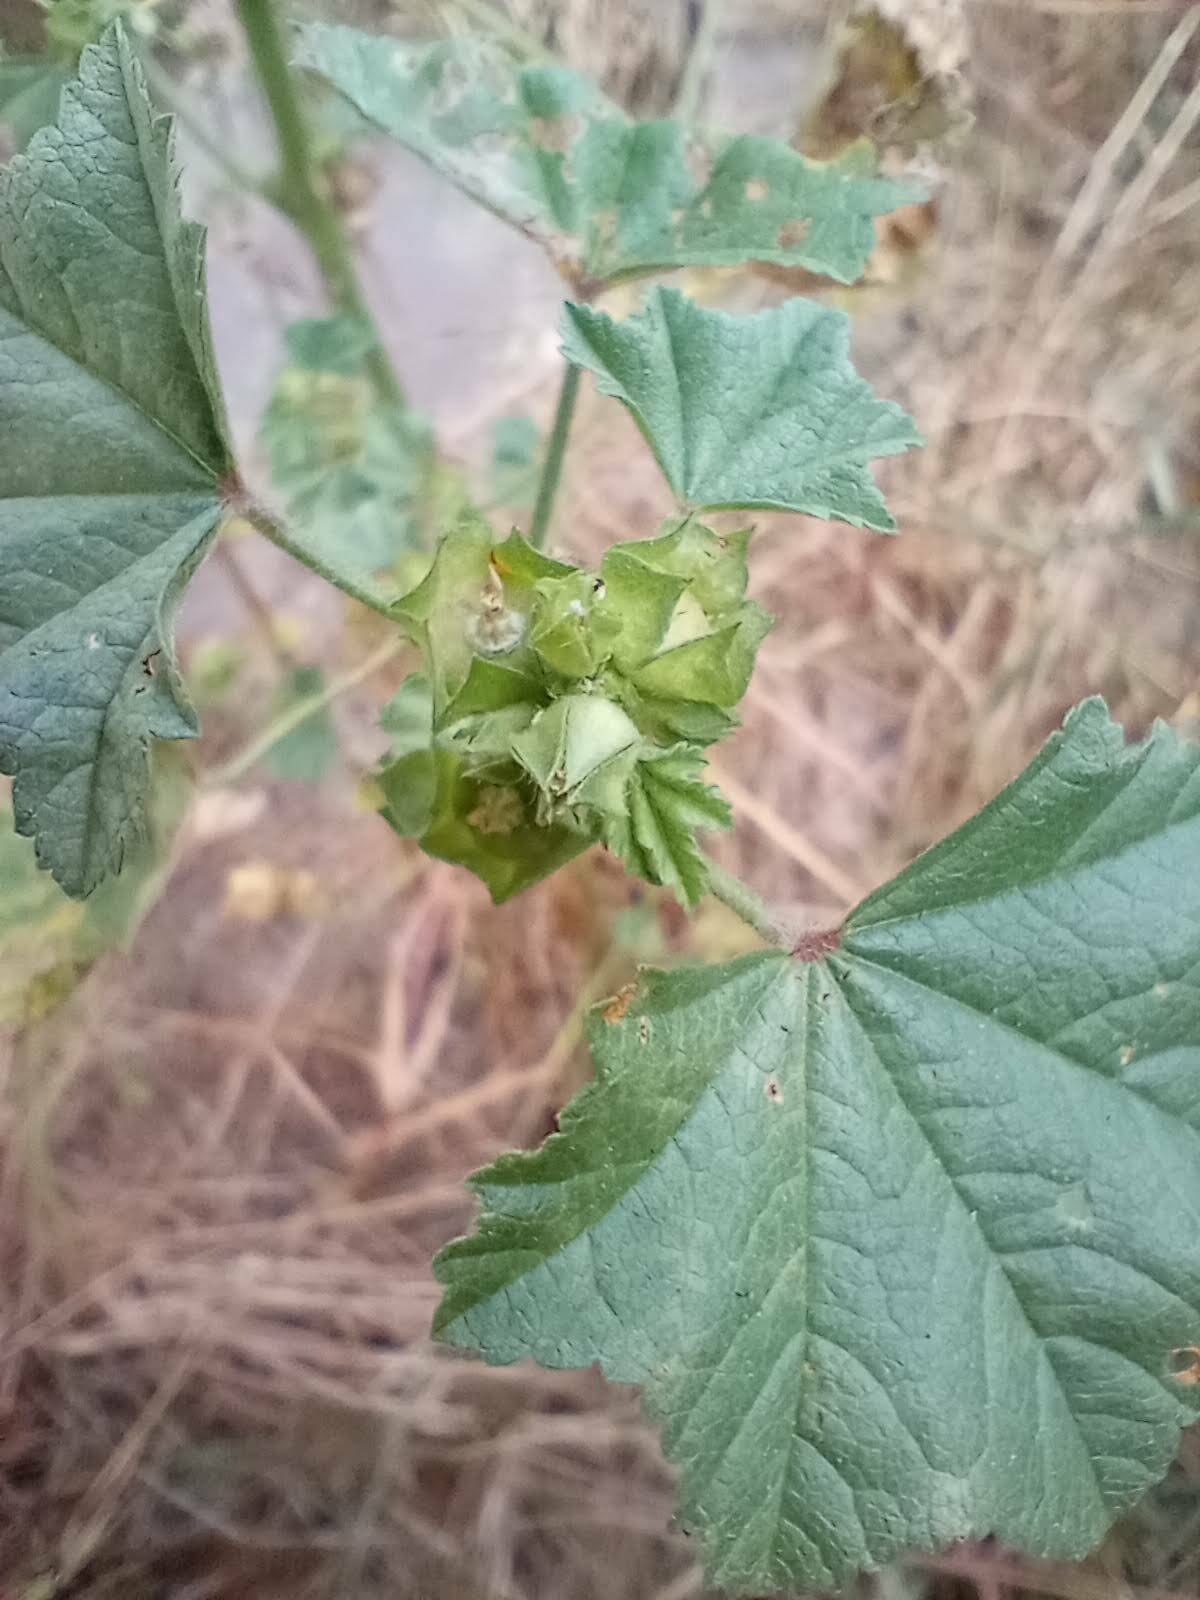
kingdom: Plantae
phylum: Tracheophyta
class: Magnoliopsida
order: Malvales
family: Malvaceae
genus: Malva
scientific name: Malva parviflora
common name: Least mallow
